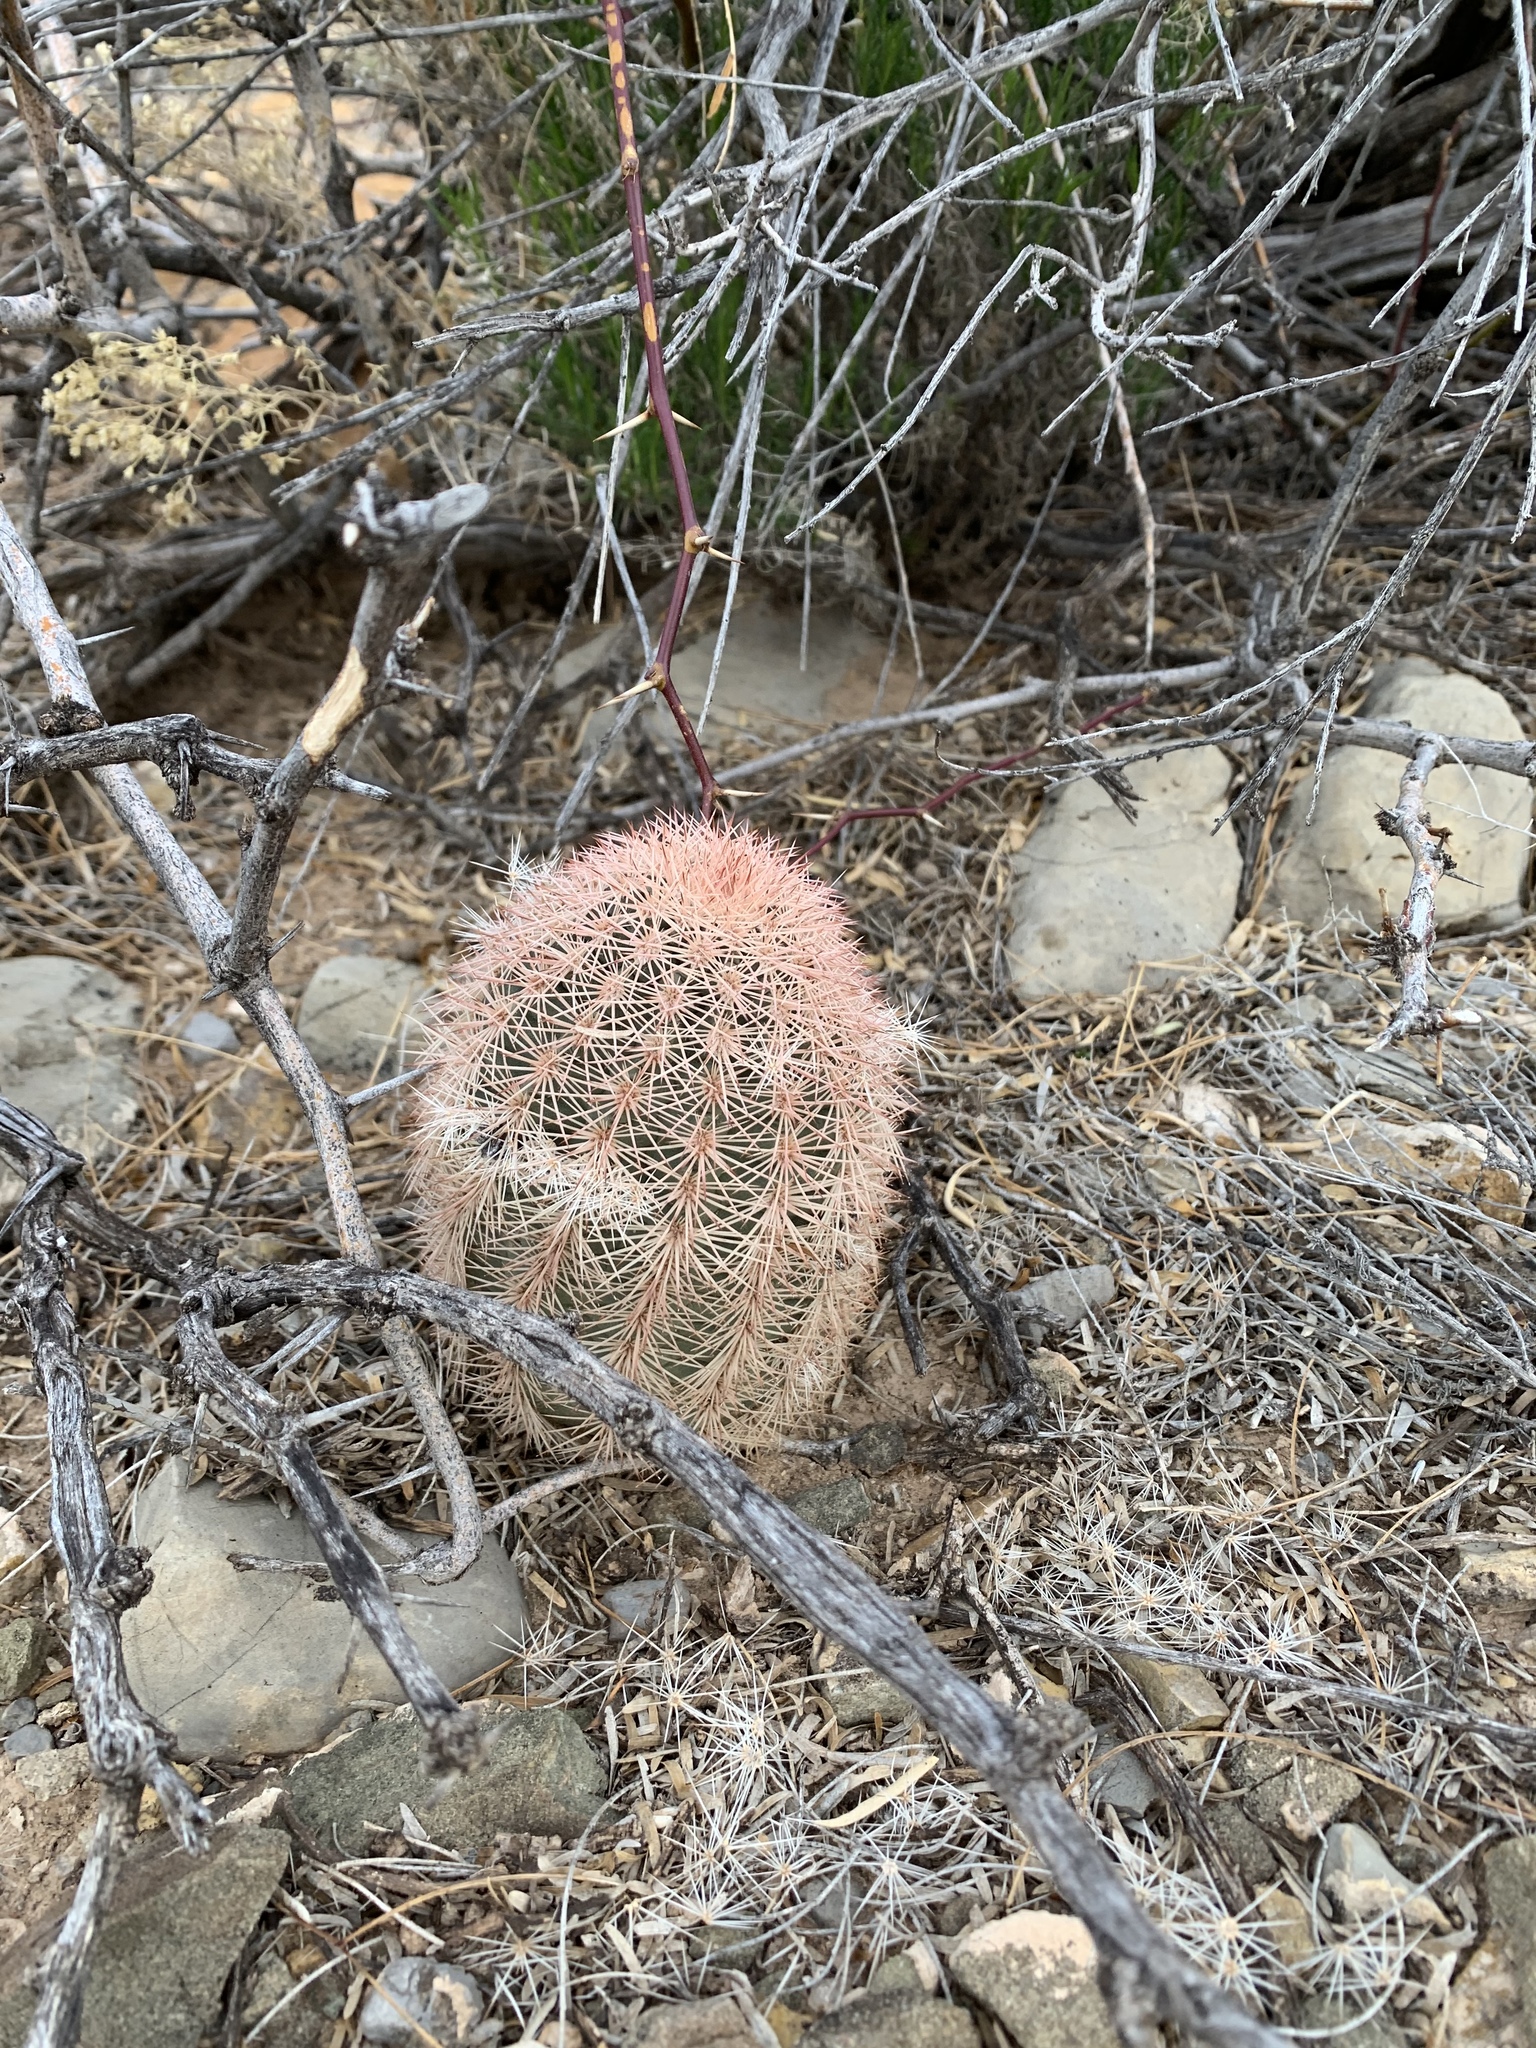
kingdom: Plantae
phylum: Tracheophyta
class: Magnoliopsida
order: Caryophyllales
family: Cactaceae
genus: Echinocereus
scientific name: Echinocereus dasyacanthus
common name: Spiny hedgehog cactus
